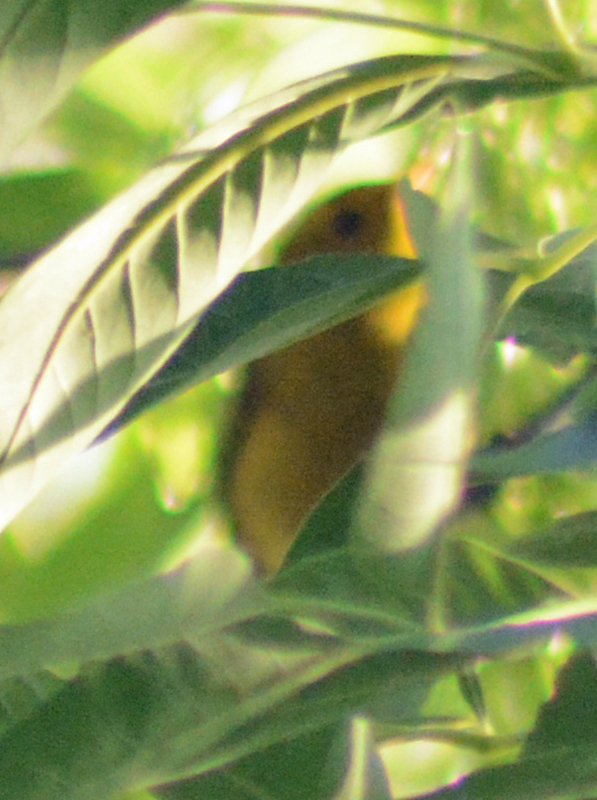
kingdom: Animalia
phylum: Chordata
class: Aves
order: Passeriformes
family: Parulidae
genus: Cardellina
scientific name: Cardellina pusilla
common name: Wilson's warbler
